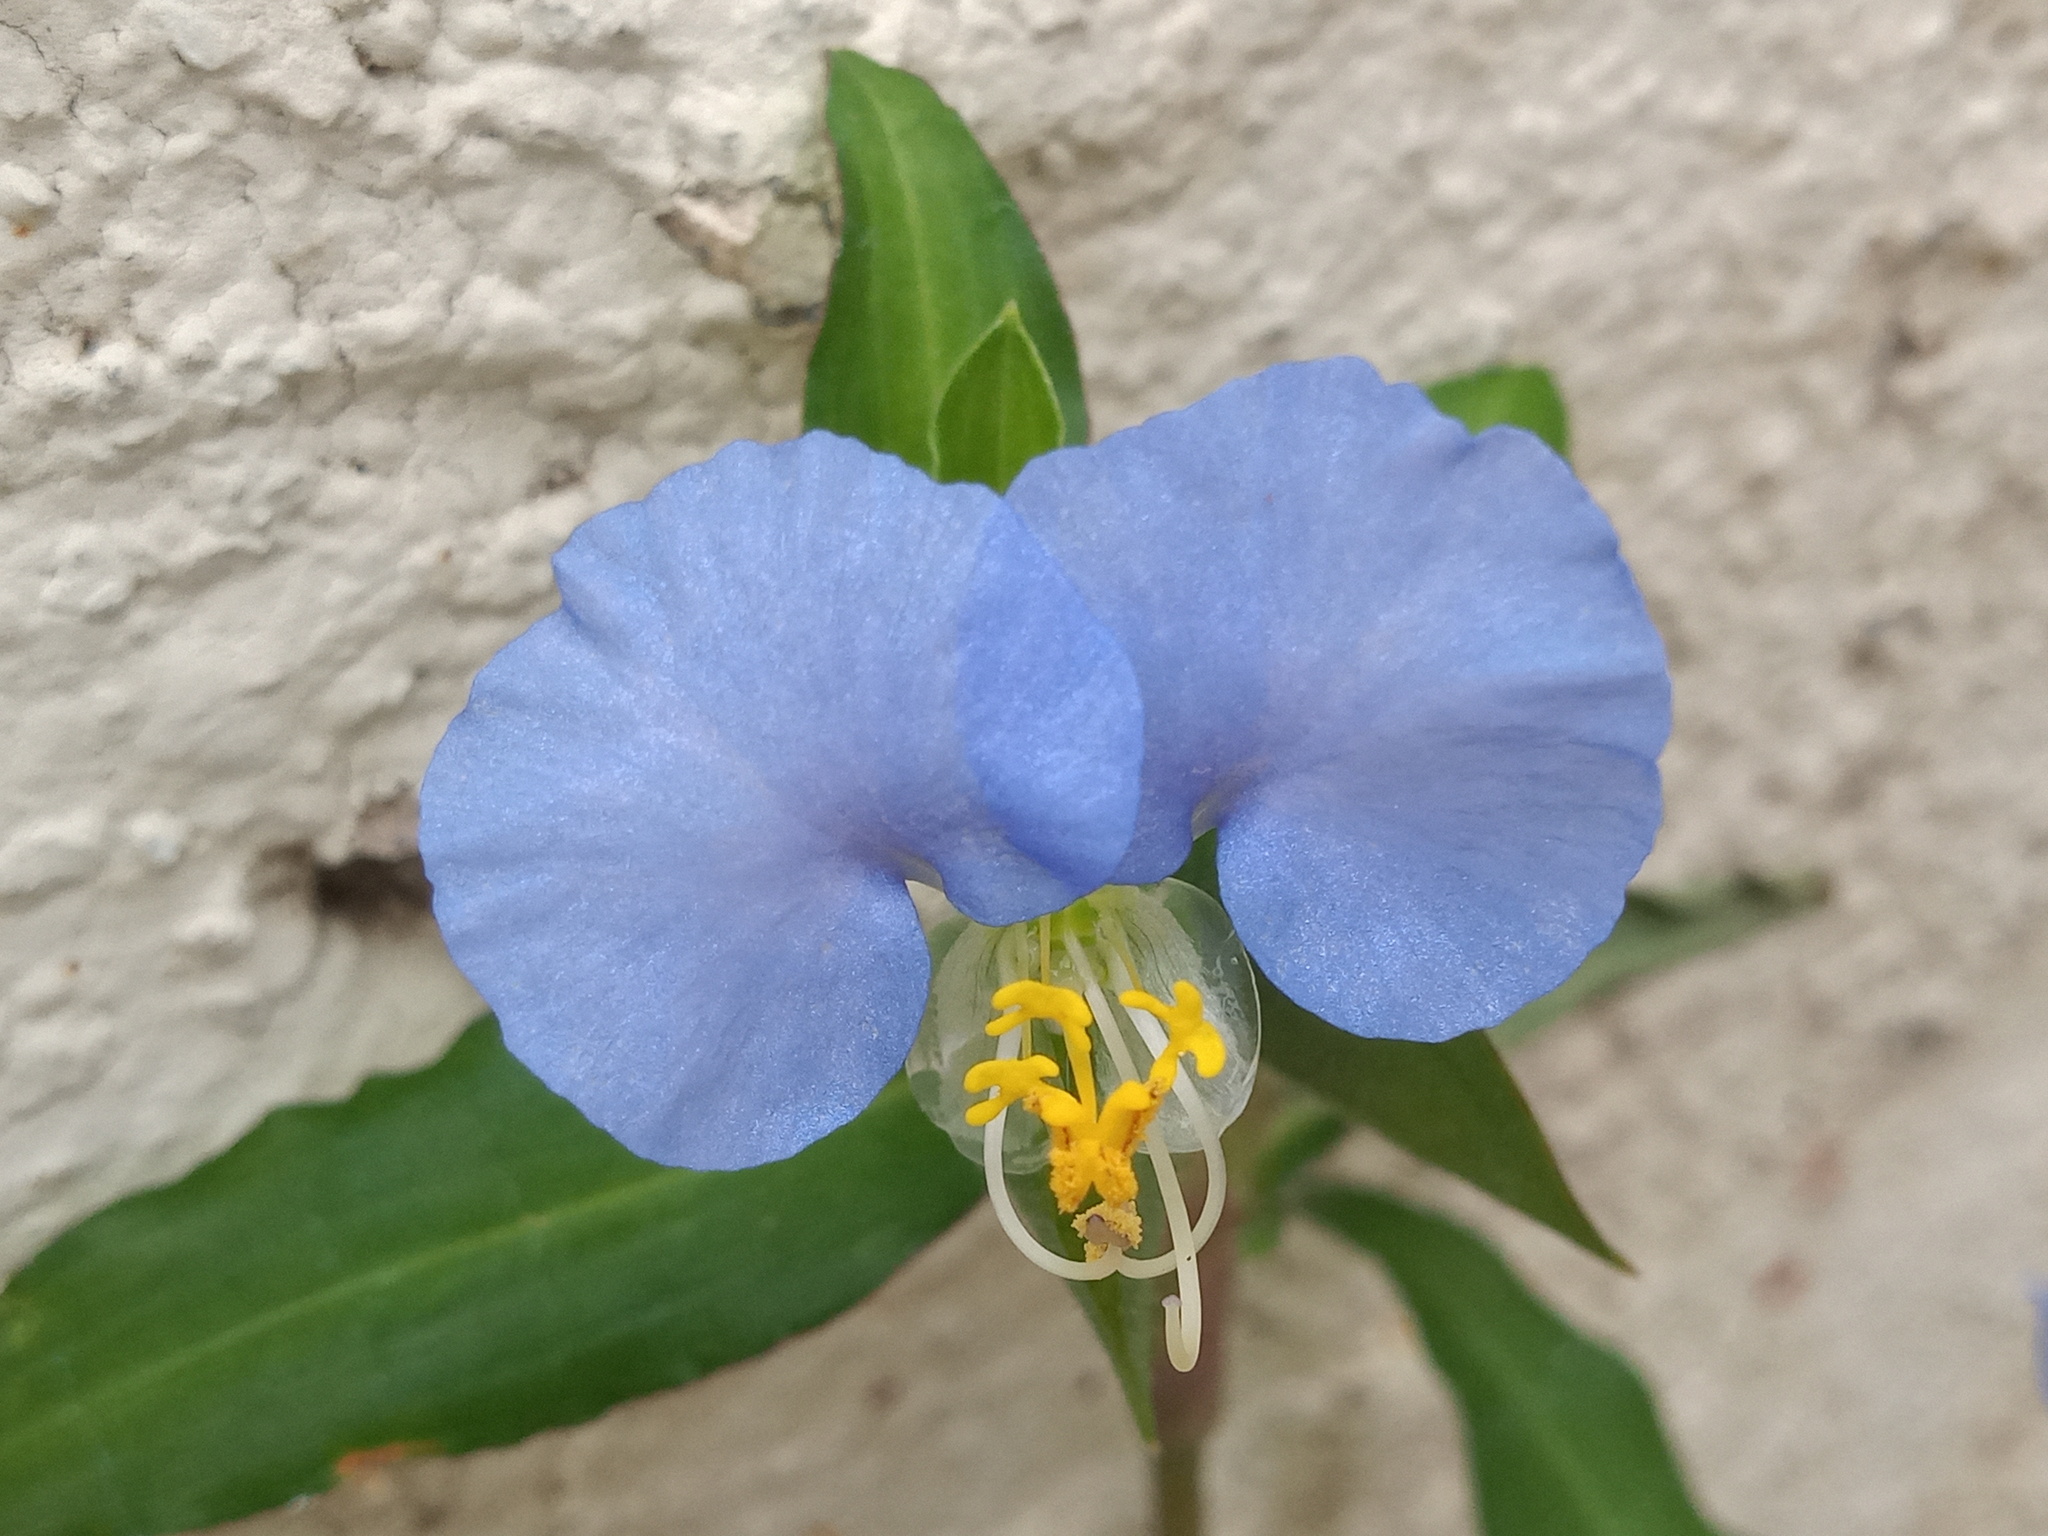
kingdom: Plantae
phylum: Tracheophyta
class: Liliopsida
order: Commelinales
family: Commelinaceae
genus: Commelina
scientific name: Commelina erecta
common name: Blousel blommetjie
